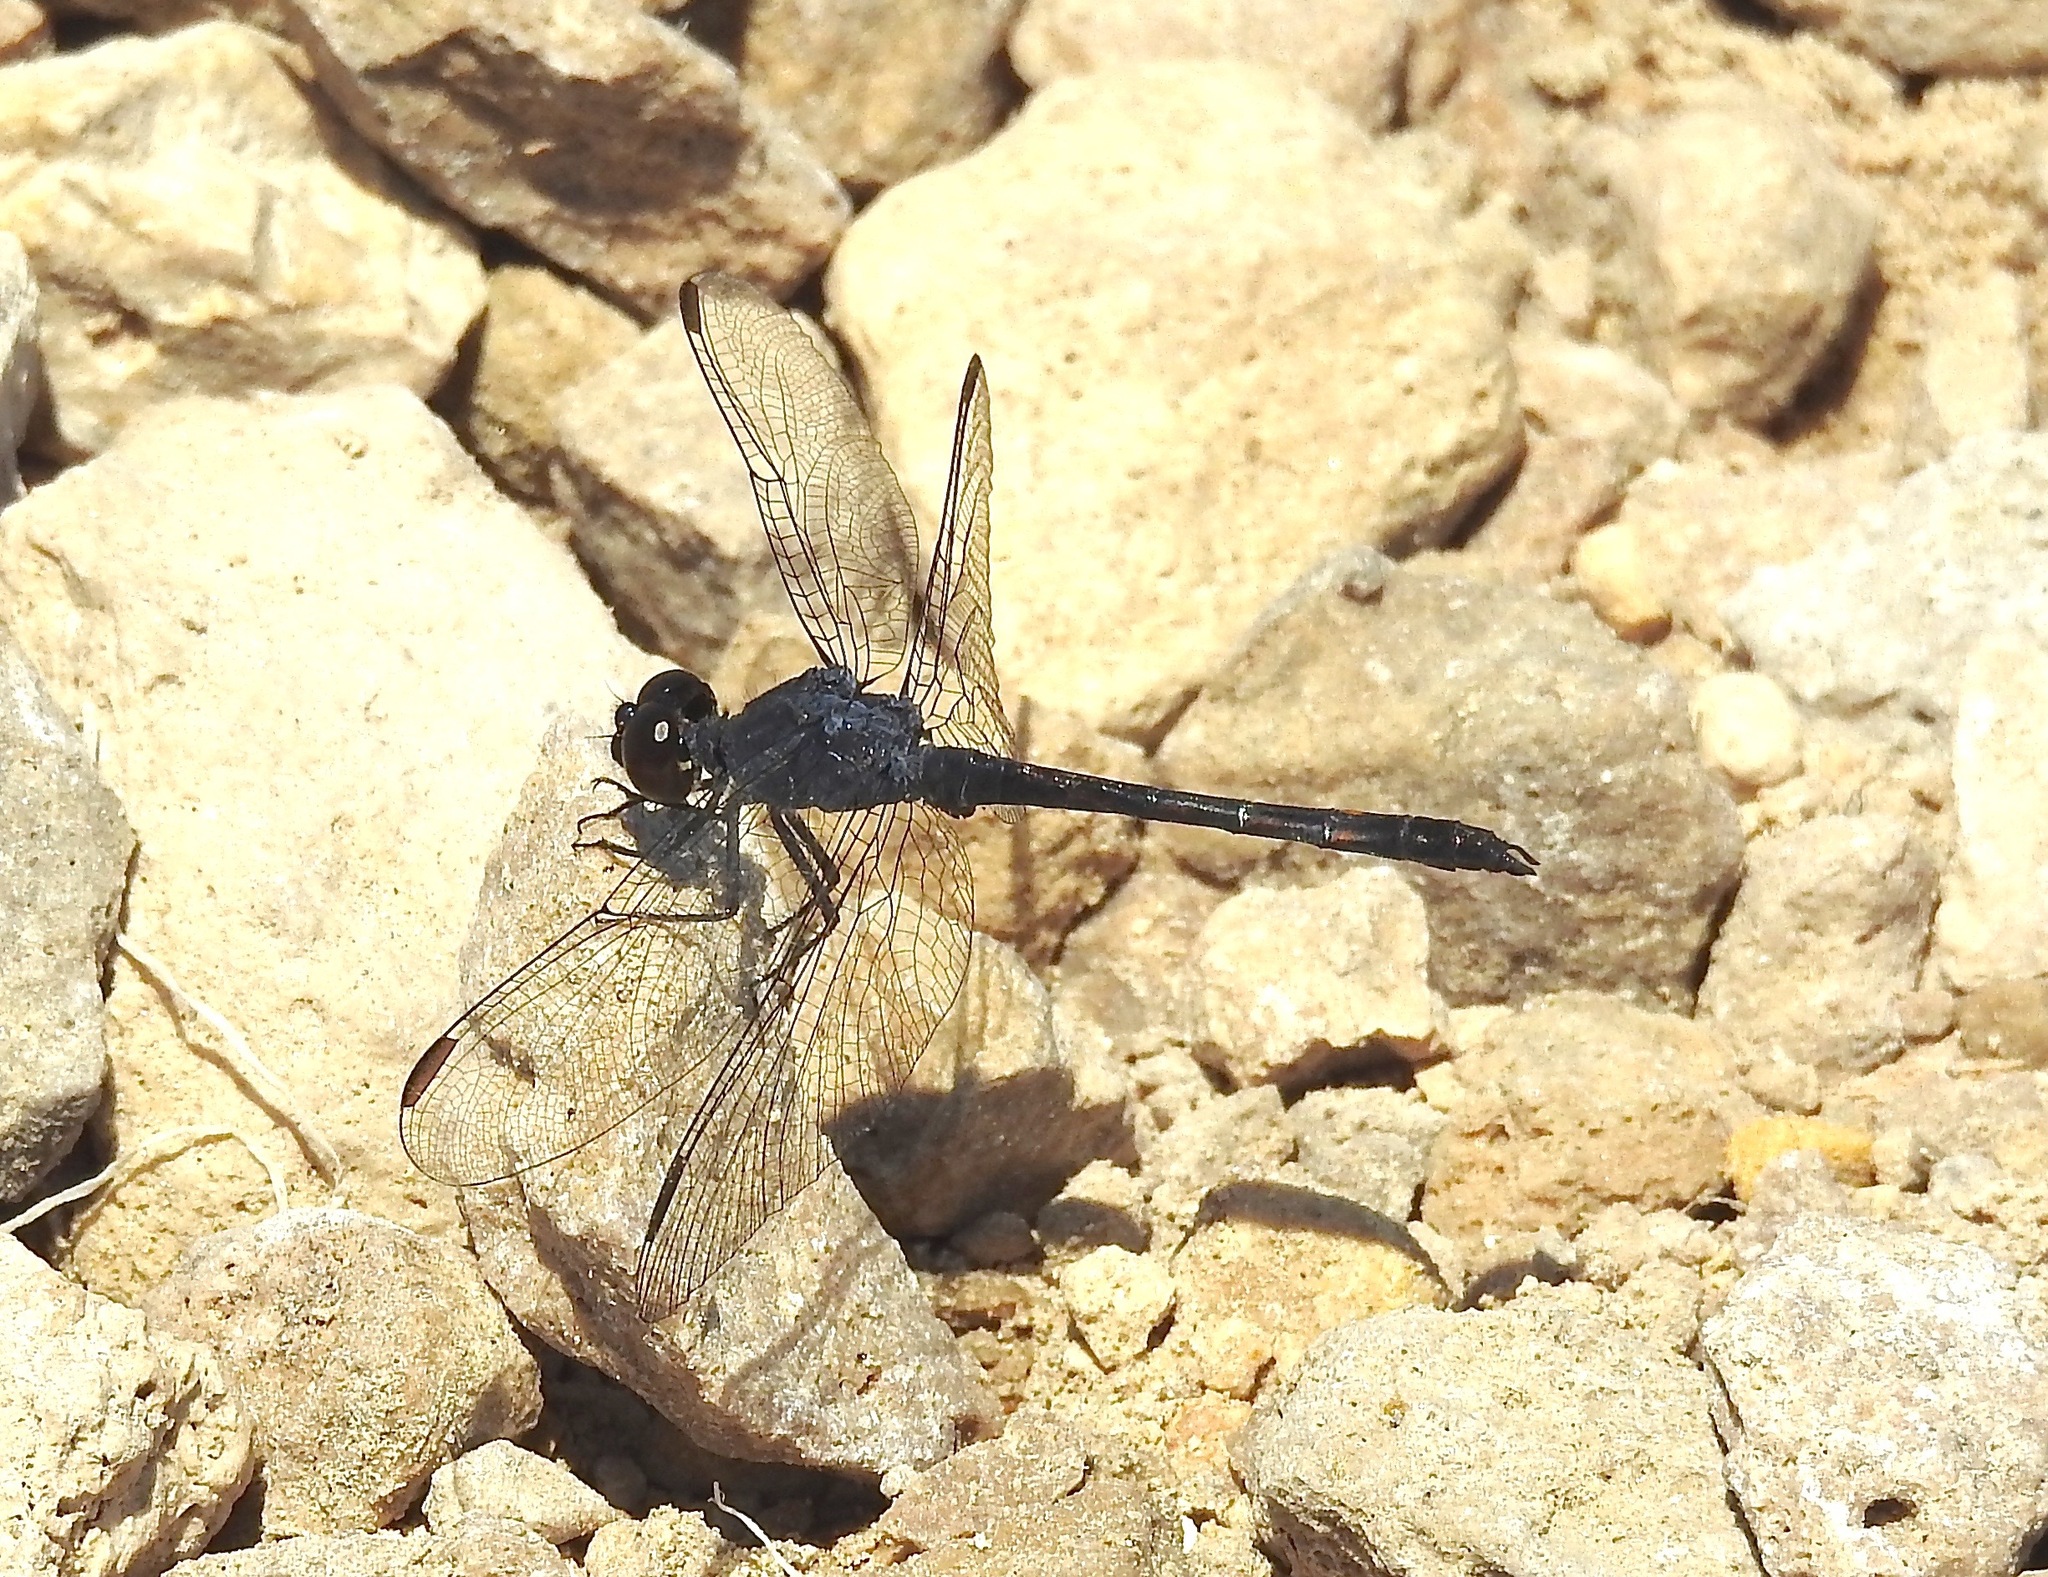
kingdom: Animalia
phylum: Arthropoda
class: Insecta
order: Odonata
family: Libellulidae
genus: Erythrodiplax
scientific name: Erythrodiplax berenice
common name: Seaside dragonlet
